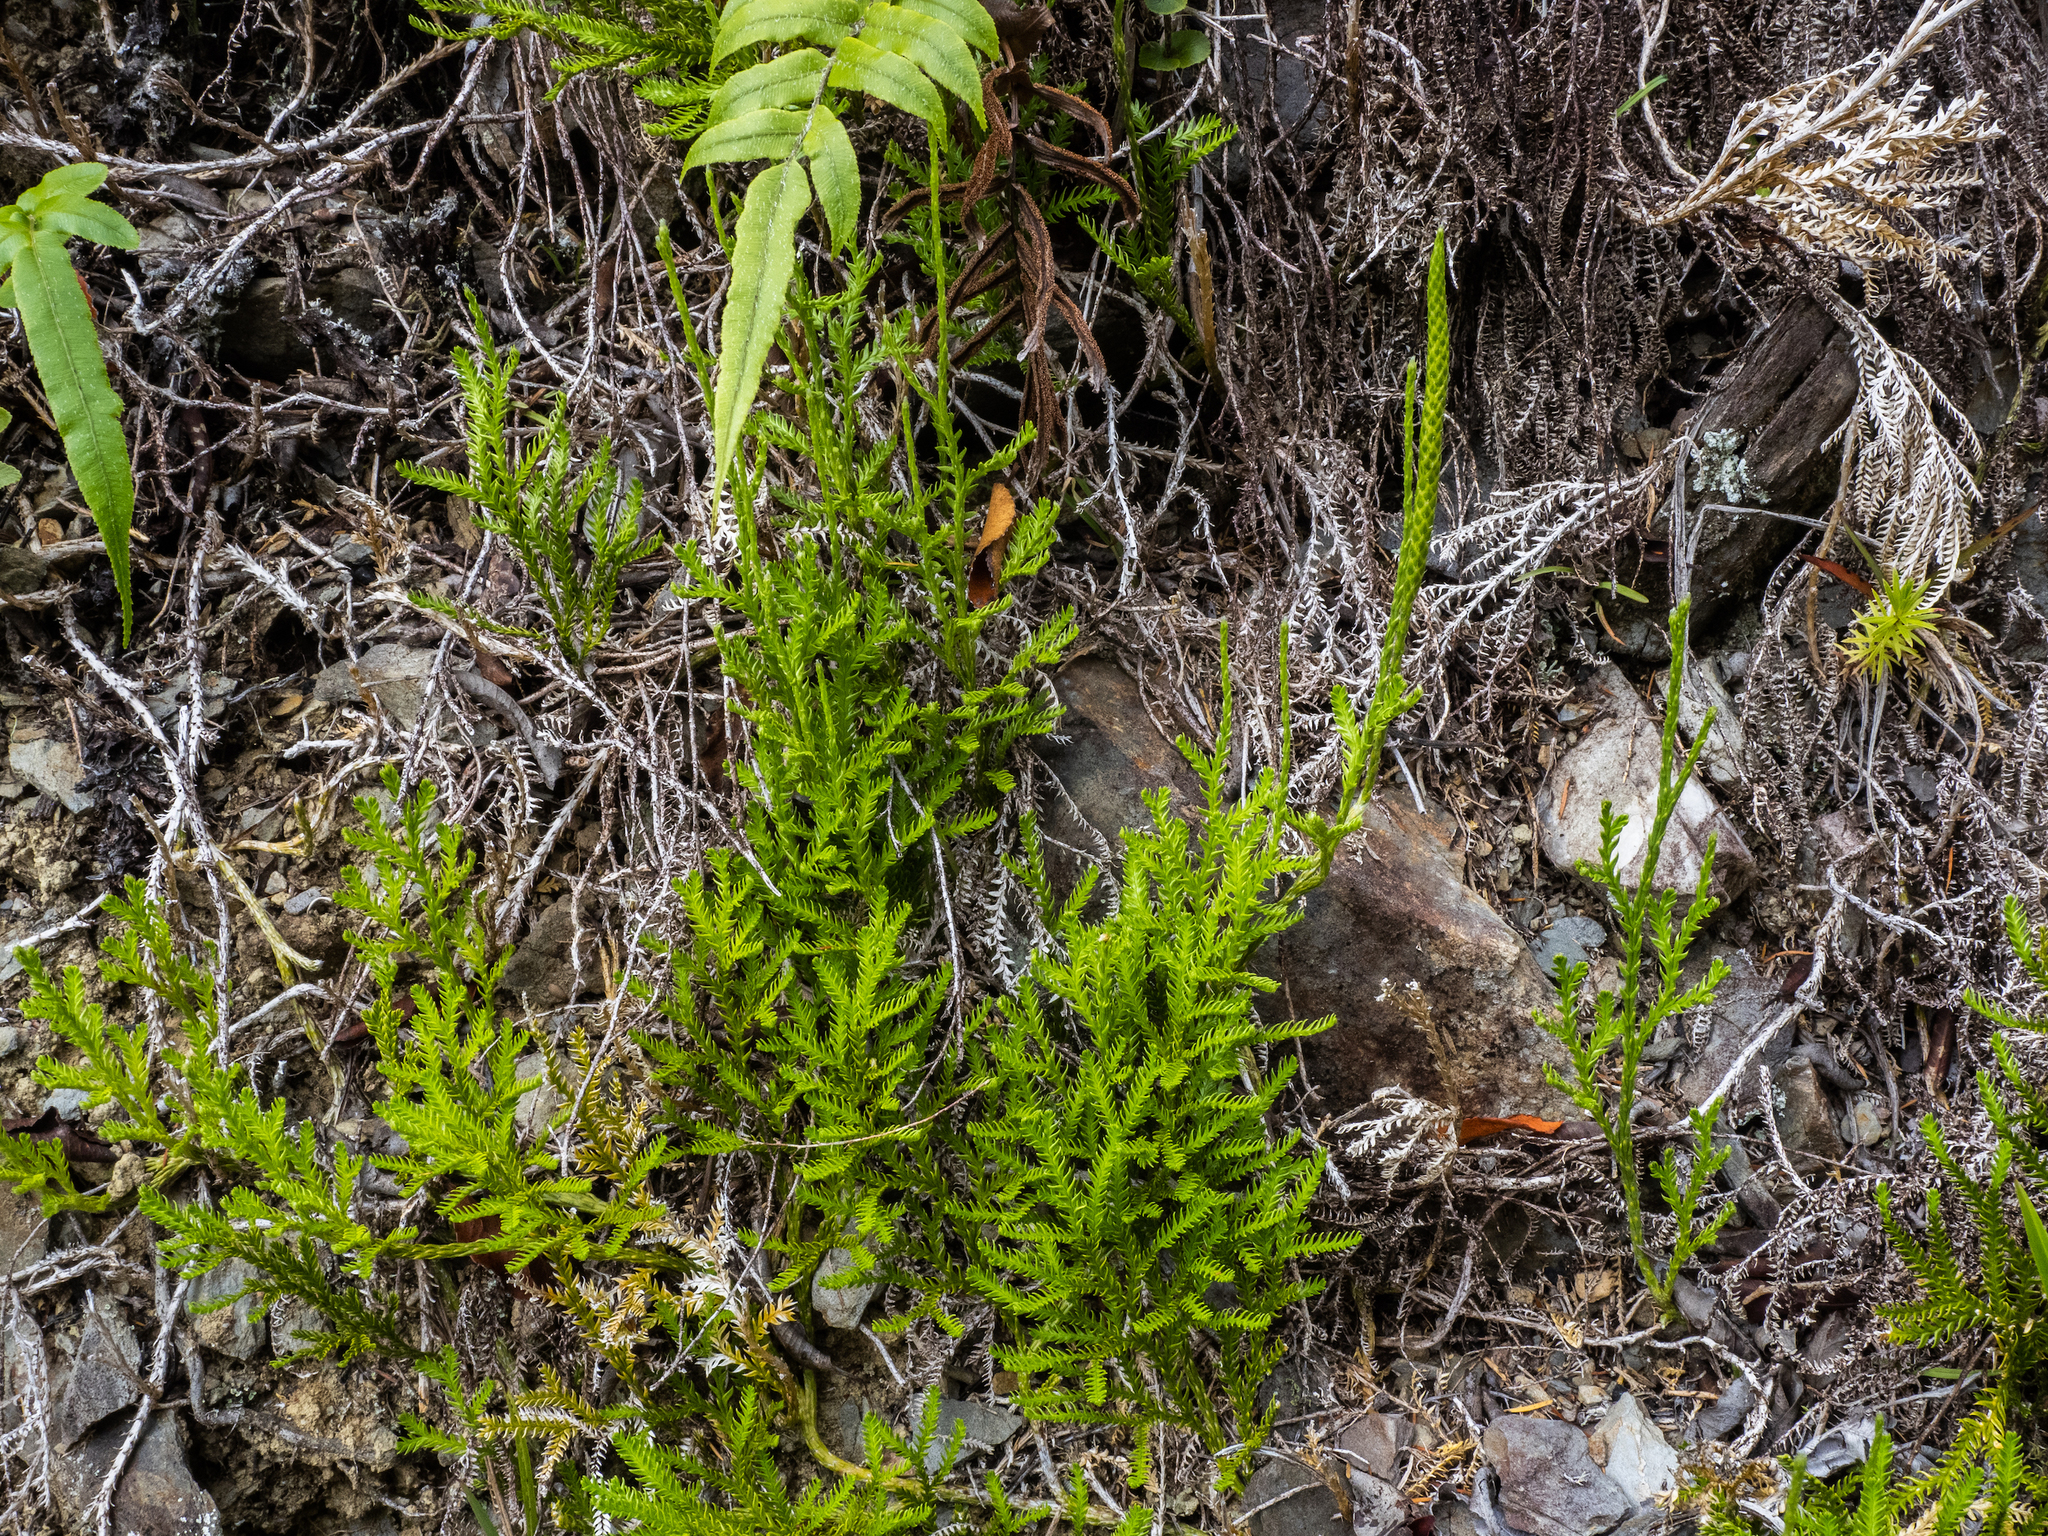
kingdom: Plantae
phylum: Tracheophyta
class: Lycopodiopsida
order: Lycopodiales
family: Lycopodiaceae
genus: Diphasium
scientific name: Diphasium scariosum
